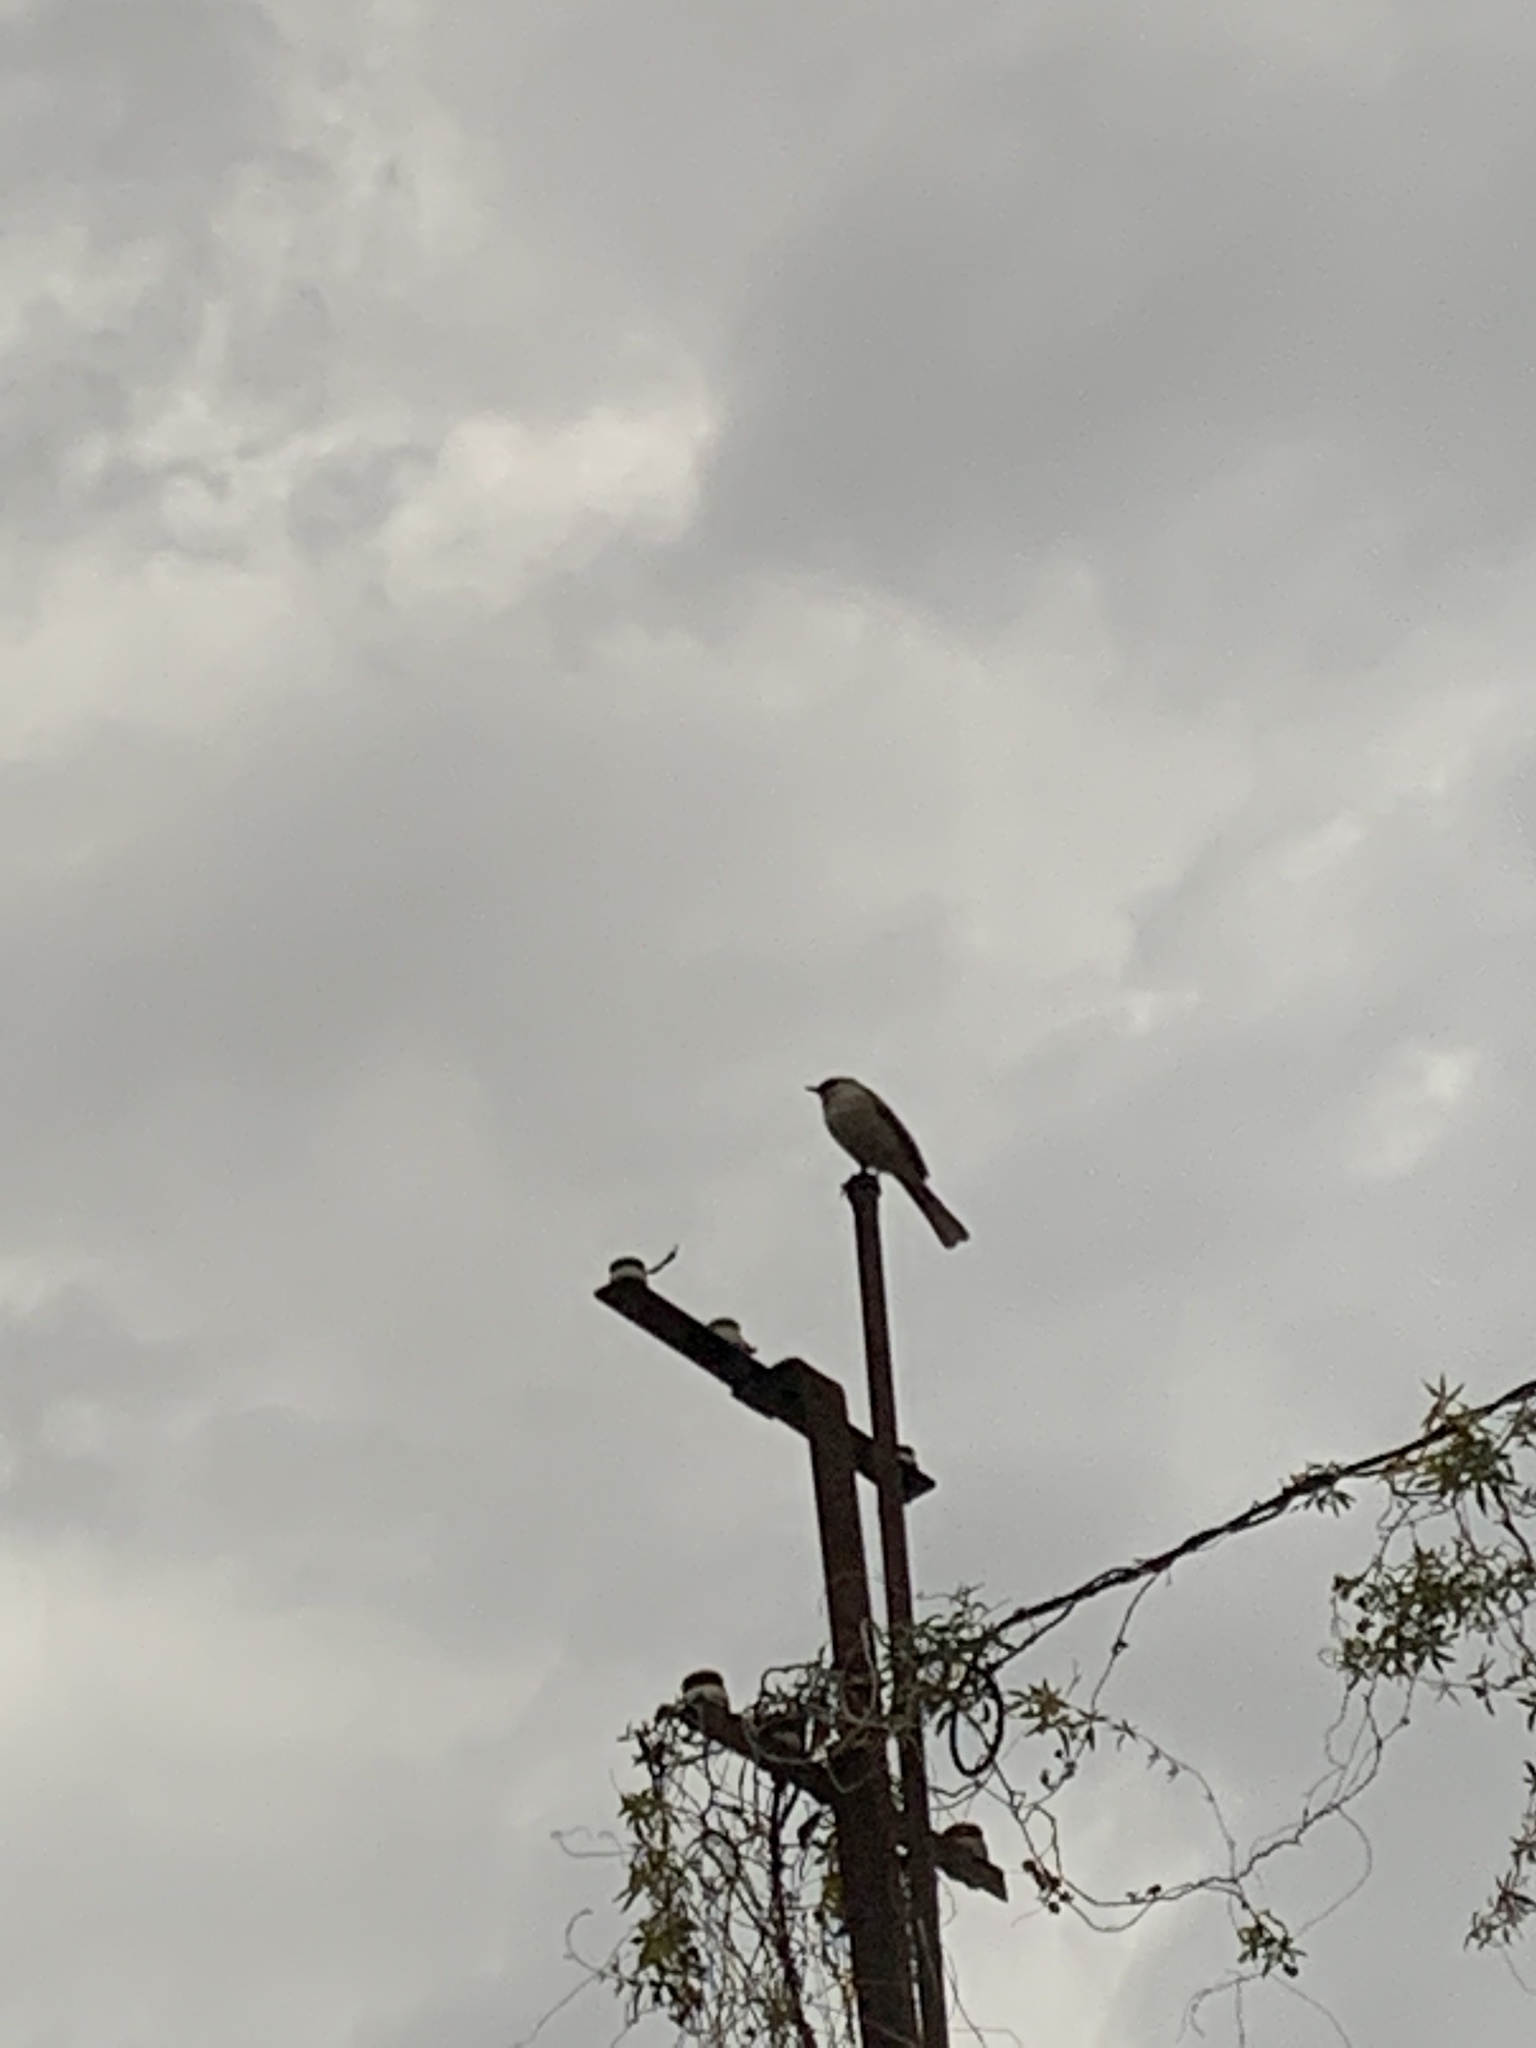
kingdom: Animalia
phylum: Chordata
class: Aves
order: Passeriformes
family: Mimidae
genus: Mimus
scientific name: Mimus saturninus
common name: Chalk-browed mockingbird
